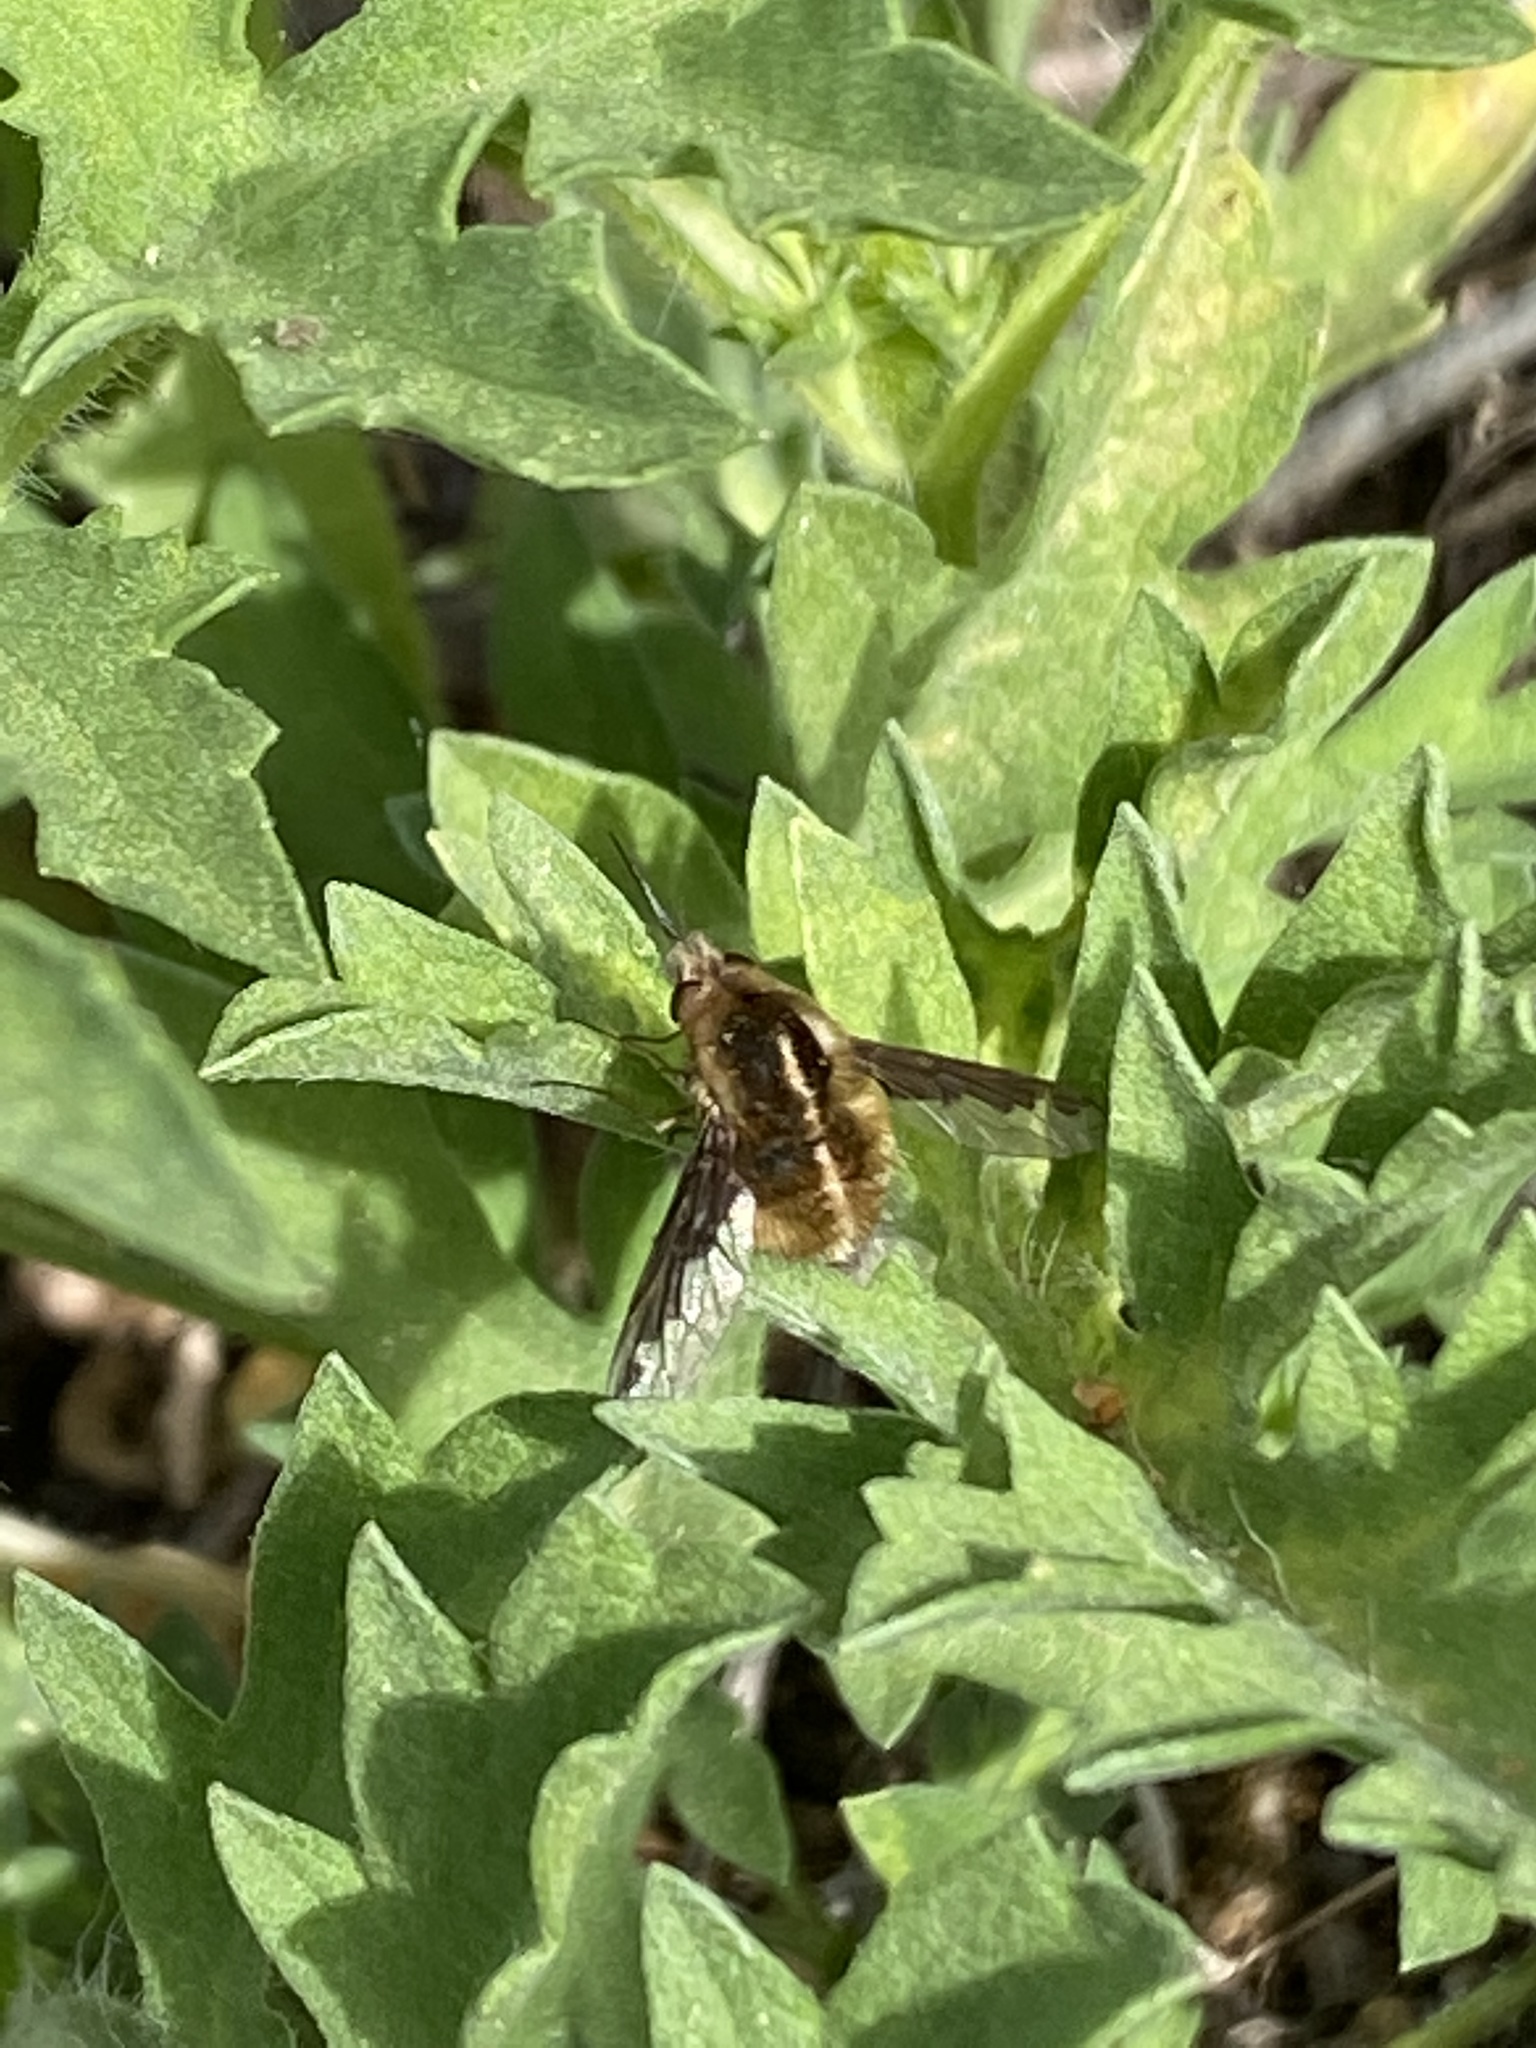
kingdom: Animalia
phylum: Arthropoda
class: Insecta
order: Diptera
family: Bombyliidae
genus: Bombylius
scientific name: Bombylius major
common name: Bee fly
